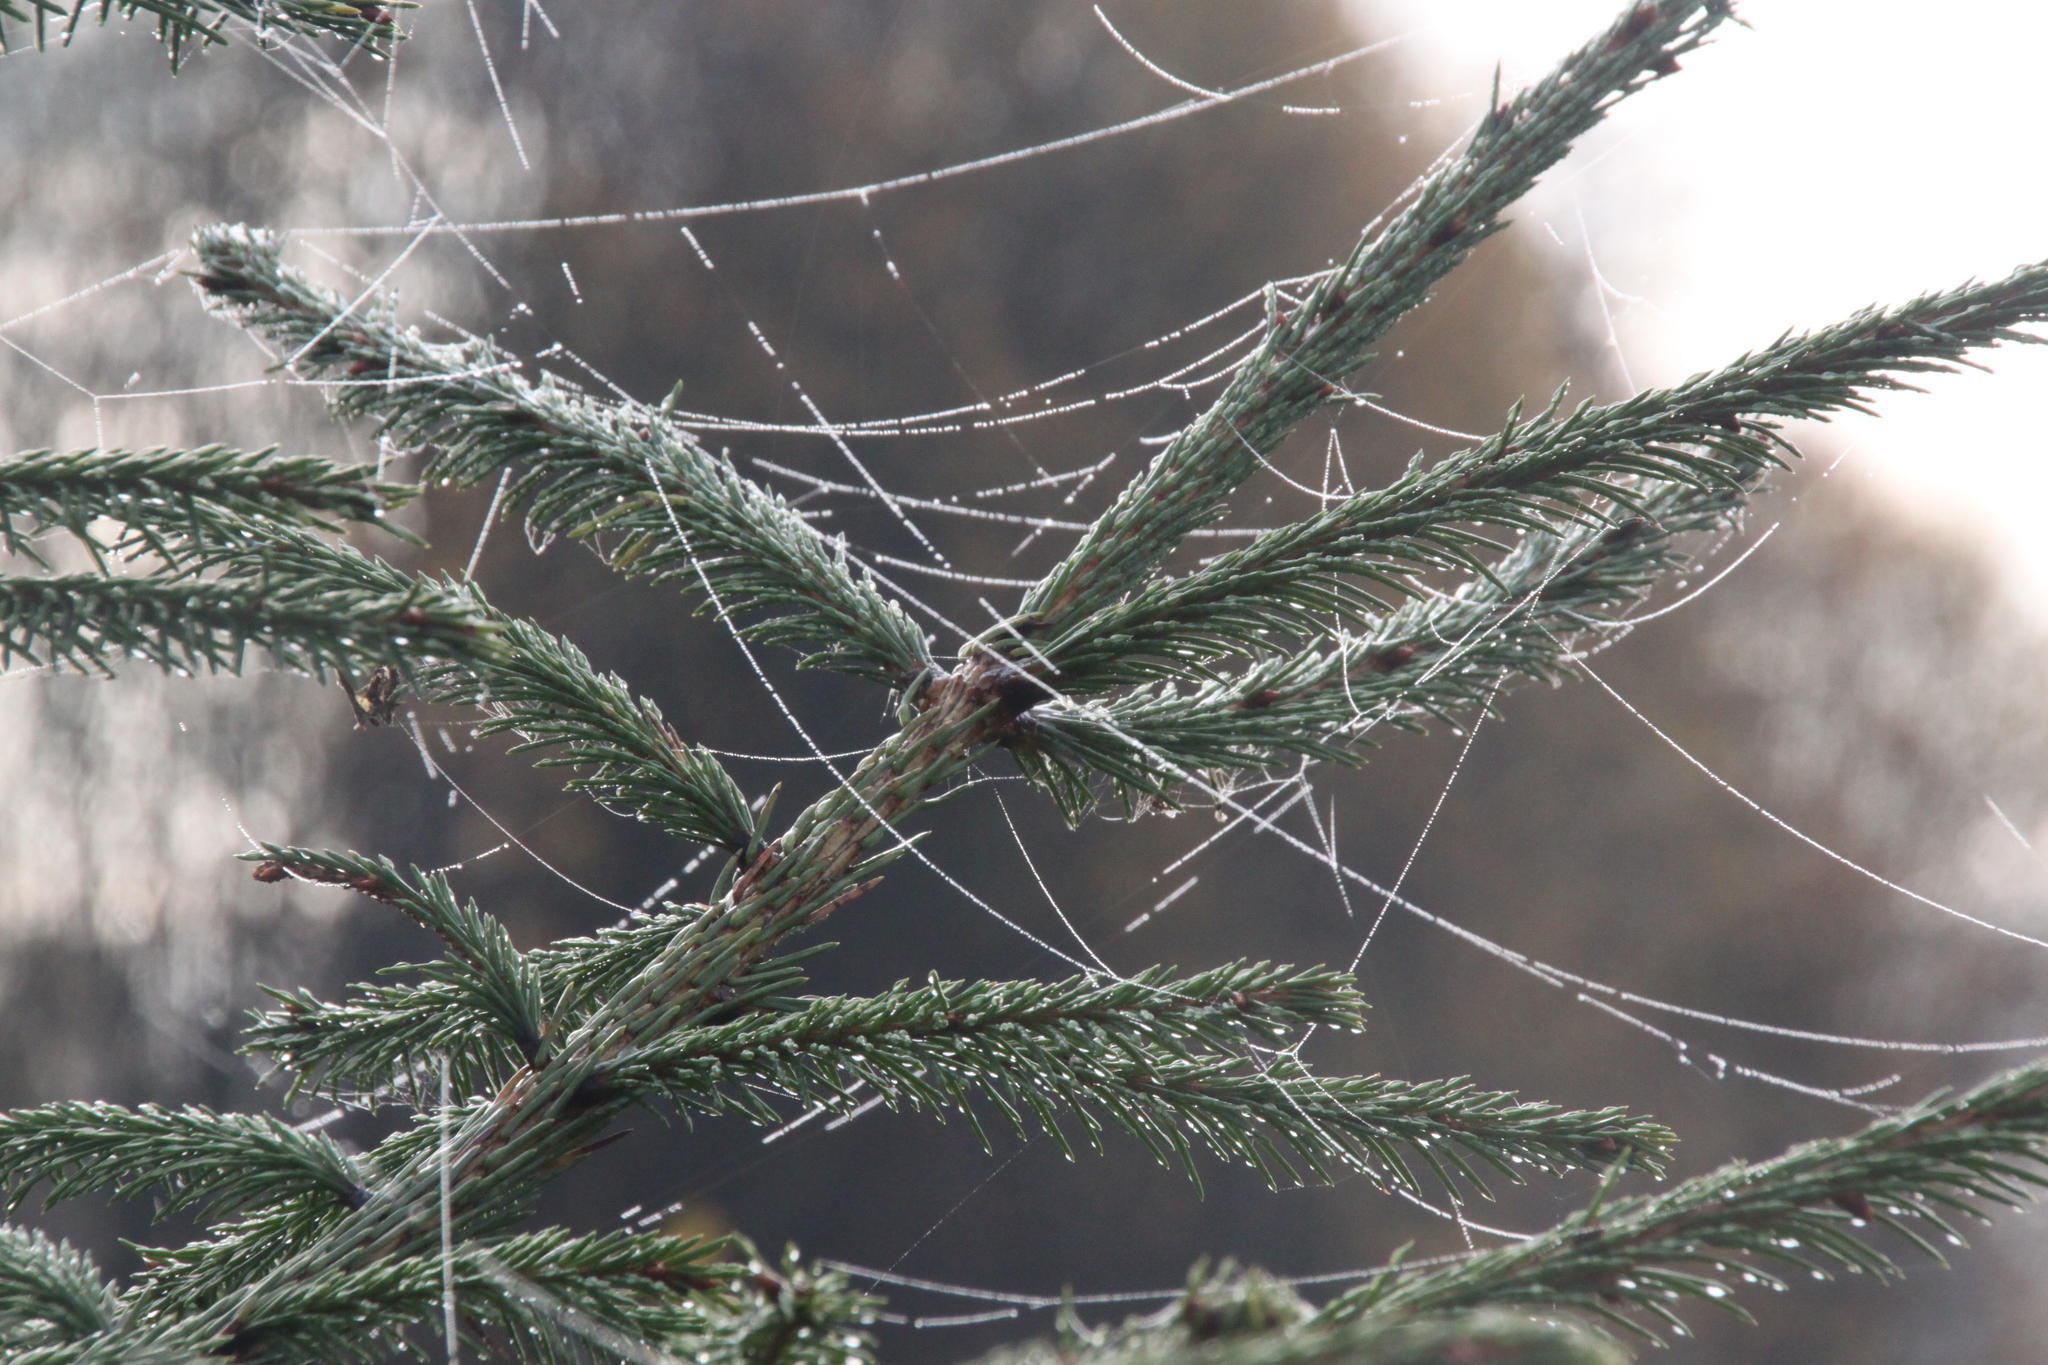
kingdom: Plantae
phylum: Tracheophyta
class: Pinopsida
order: Pinales
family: Pinaceae
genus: Picea
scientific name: Picea abies
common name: Norway spruce
